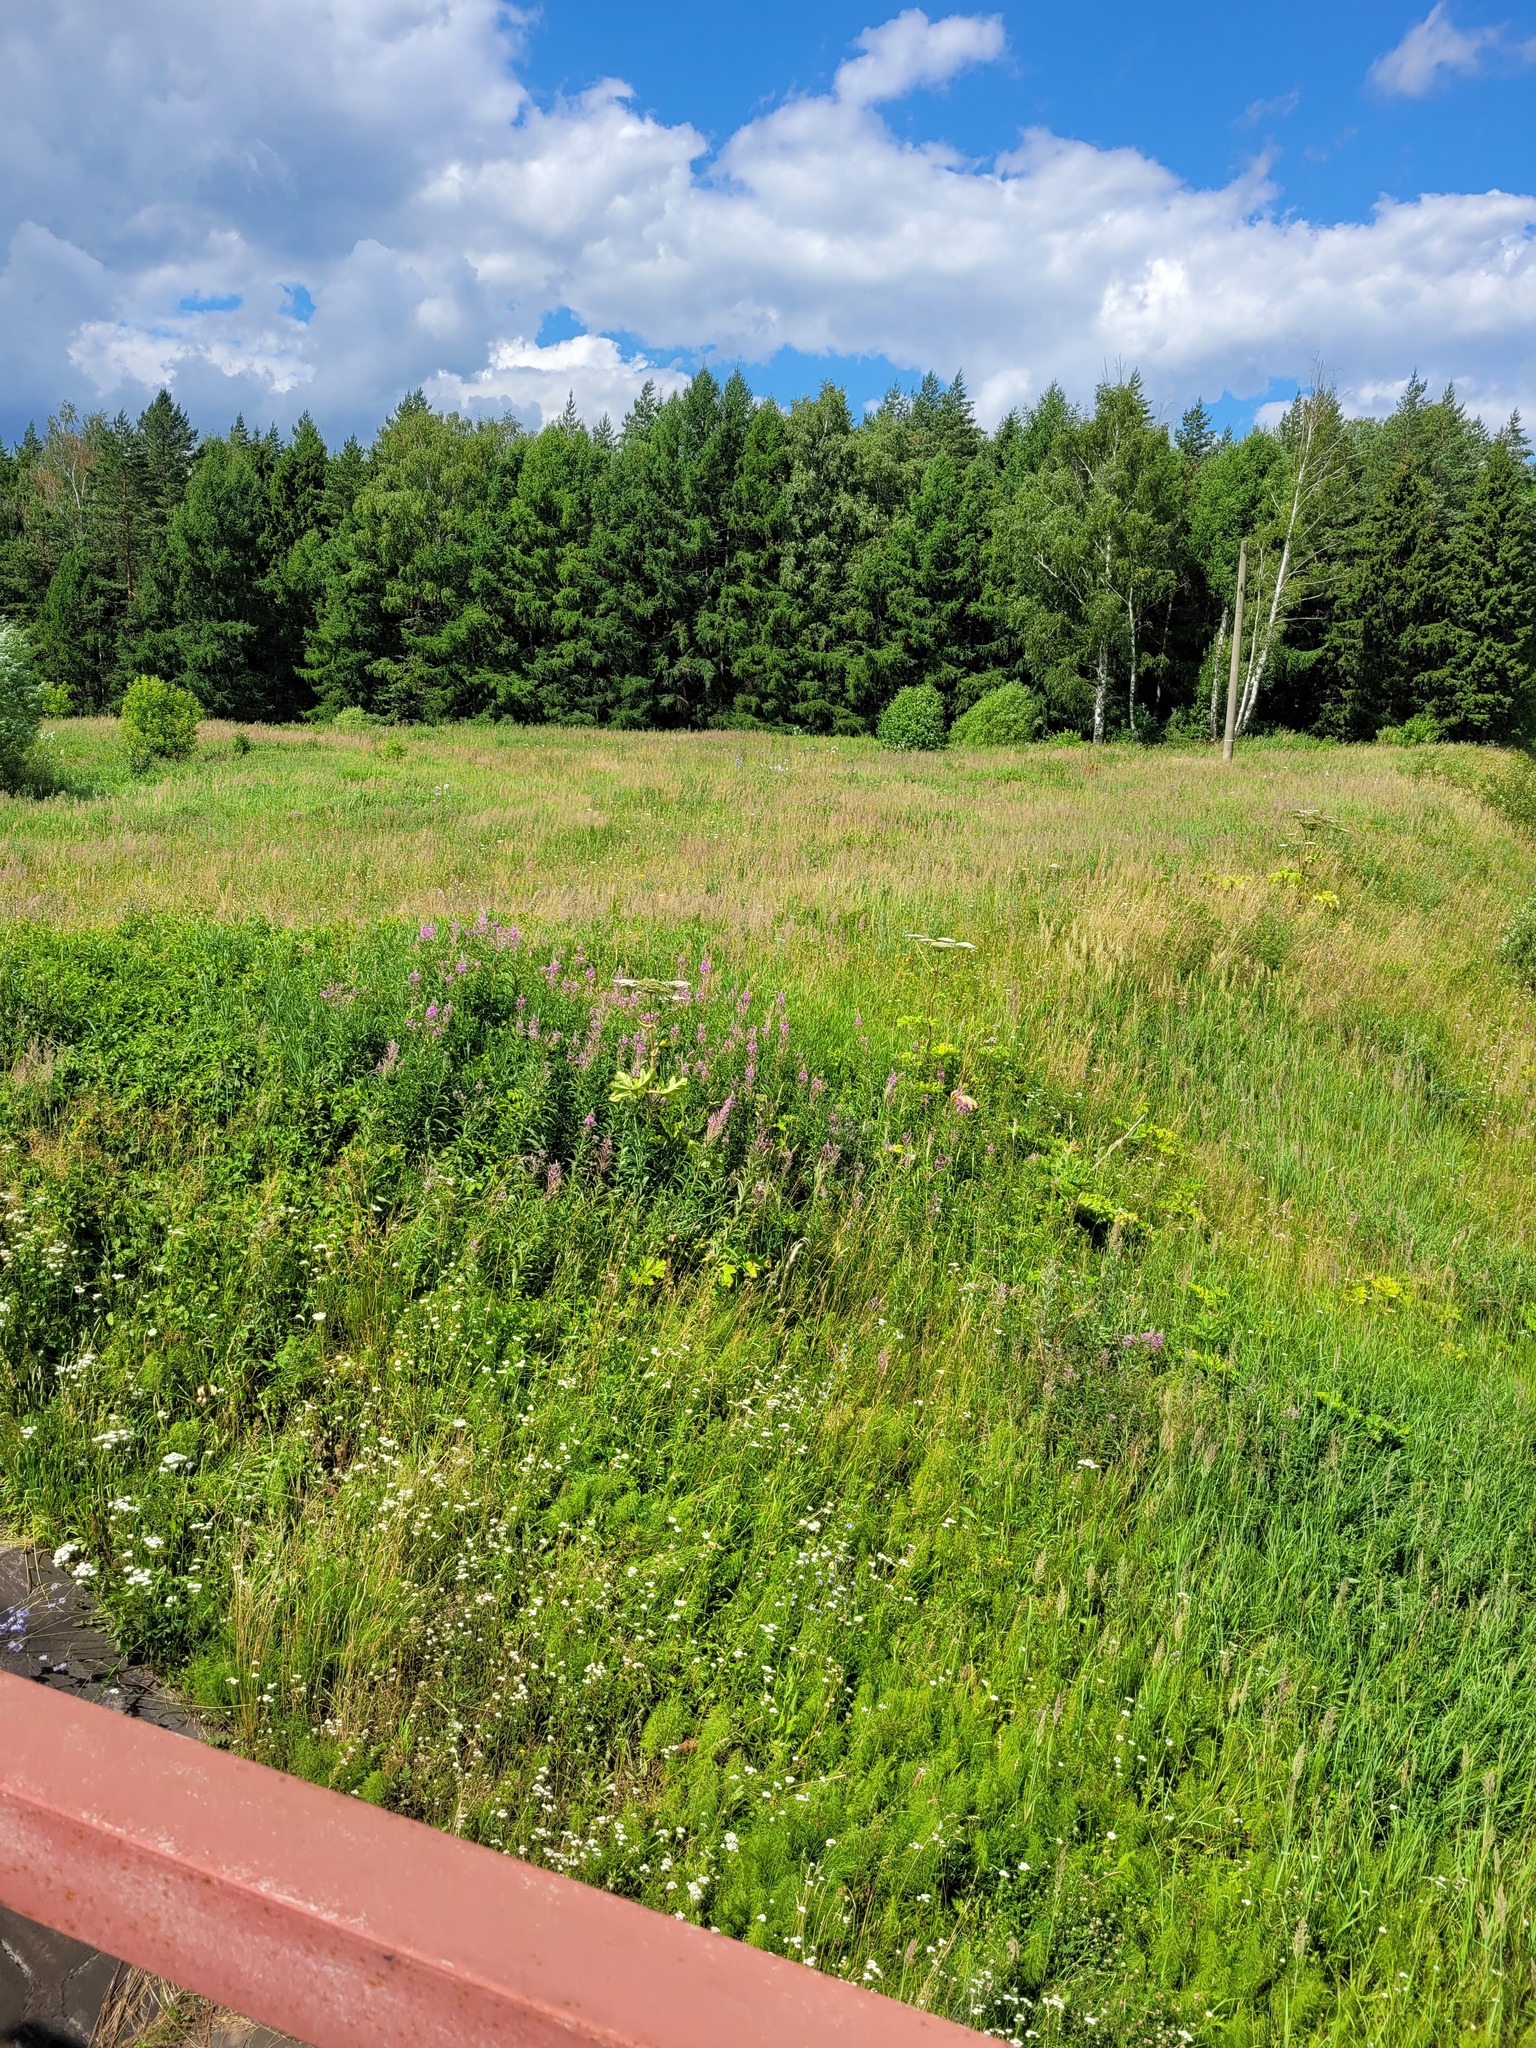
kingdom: Plantae
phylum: Tracheophyta
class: Magnoliopsida
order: Myrtales
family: Onagraceae
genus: Chamaenerion
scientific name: Chamaenerion angustifolium
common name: Fireweed
